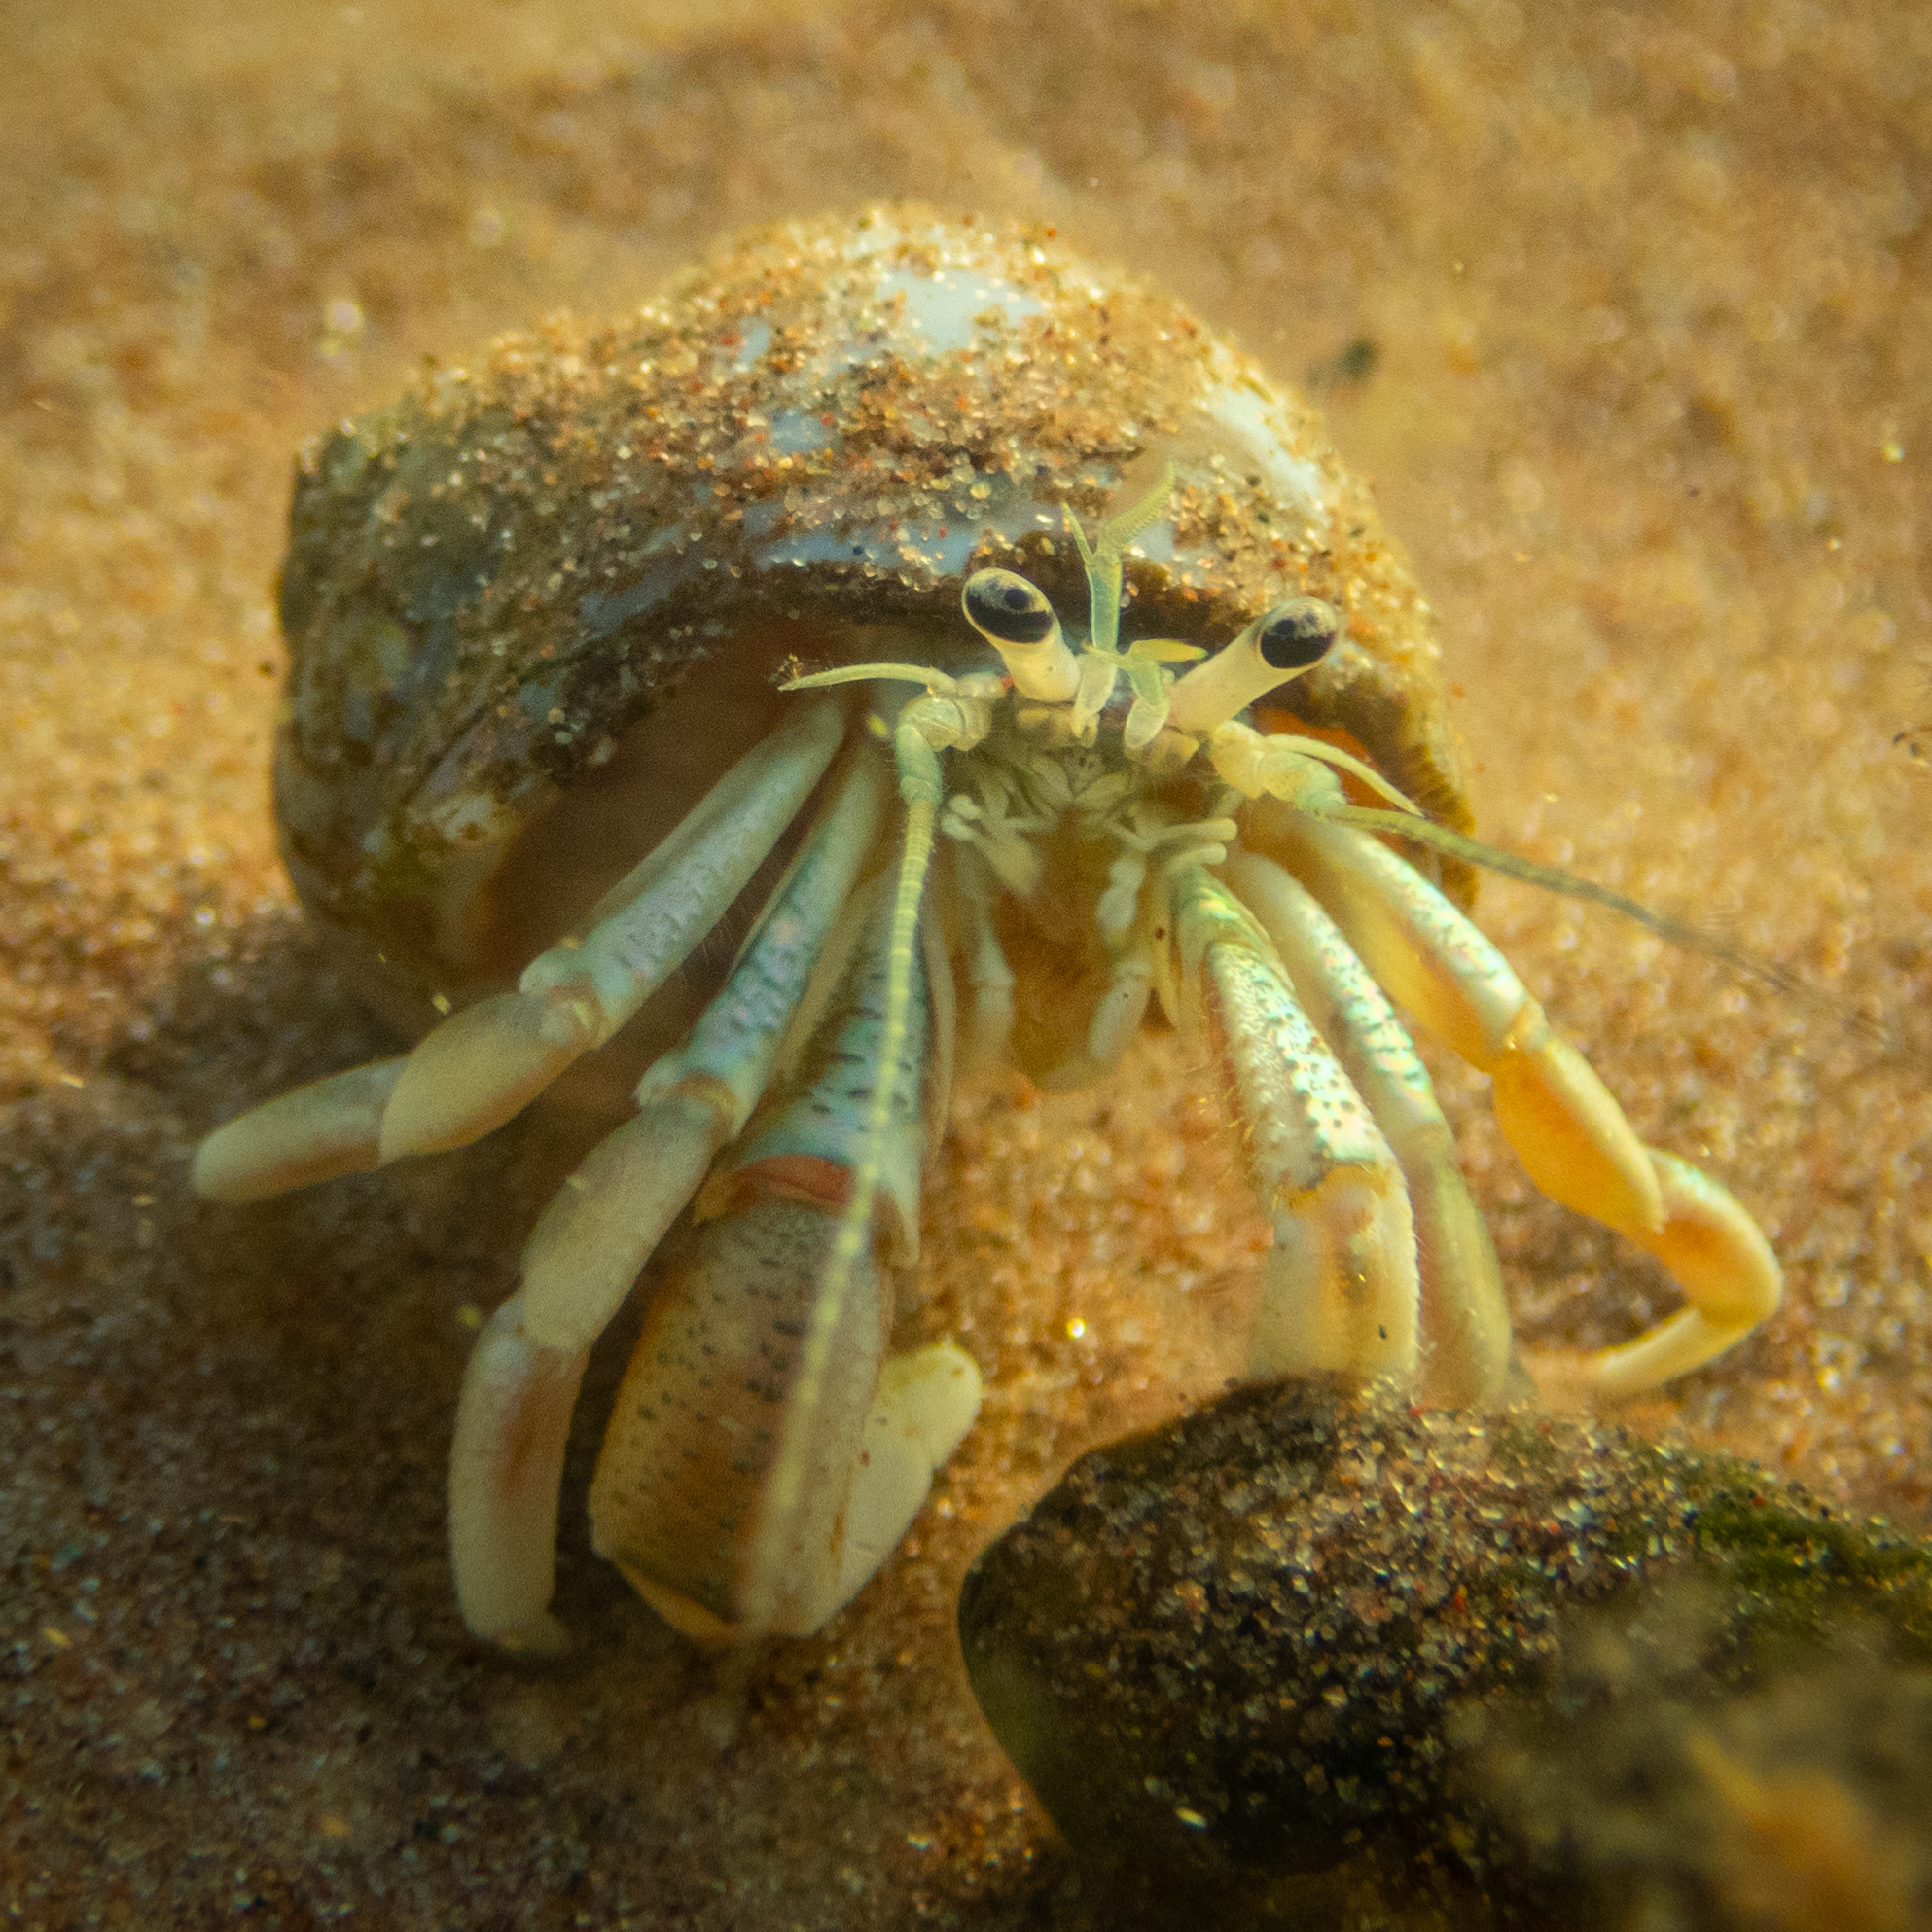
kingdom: Animalia
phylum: Arthropoda
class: Malacostraca
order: Decapoda
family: Paguridae
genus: Pagurus
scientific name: Pagurus longicarpus
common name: Long-armed hermit crab
